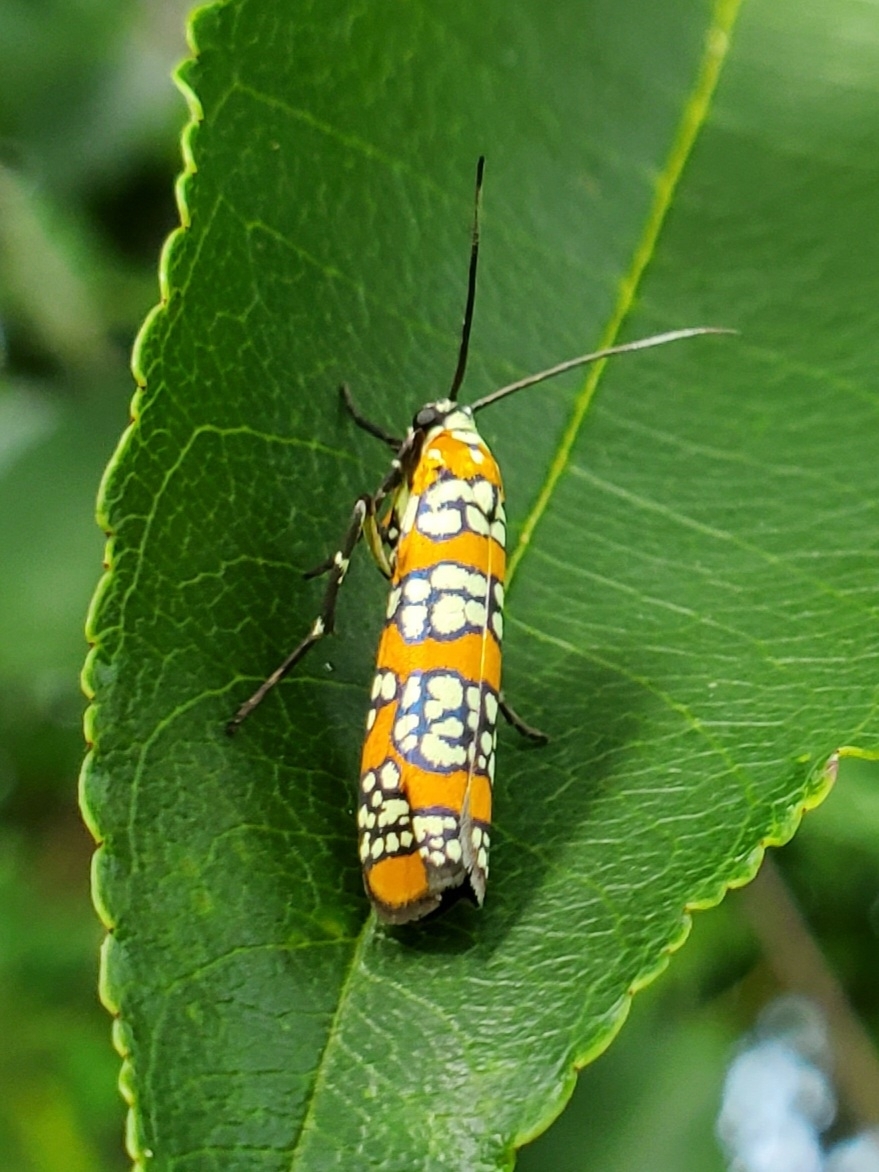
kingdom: Animalia
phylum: Arthropoda
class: Insecta
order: Lepidoptera
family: Attevidae
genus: Atteva
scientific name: Atteva punctella
